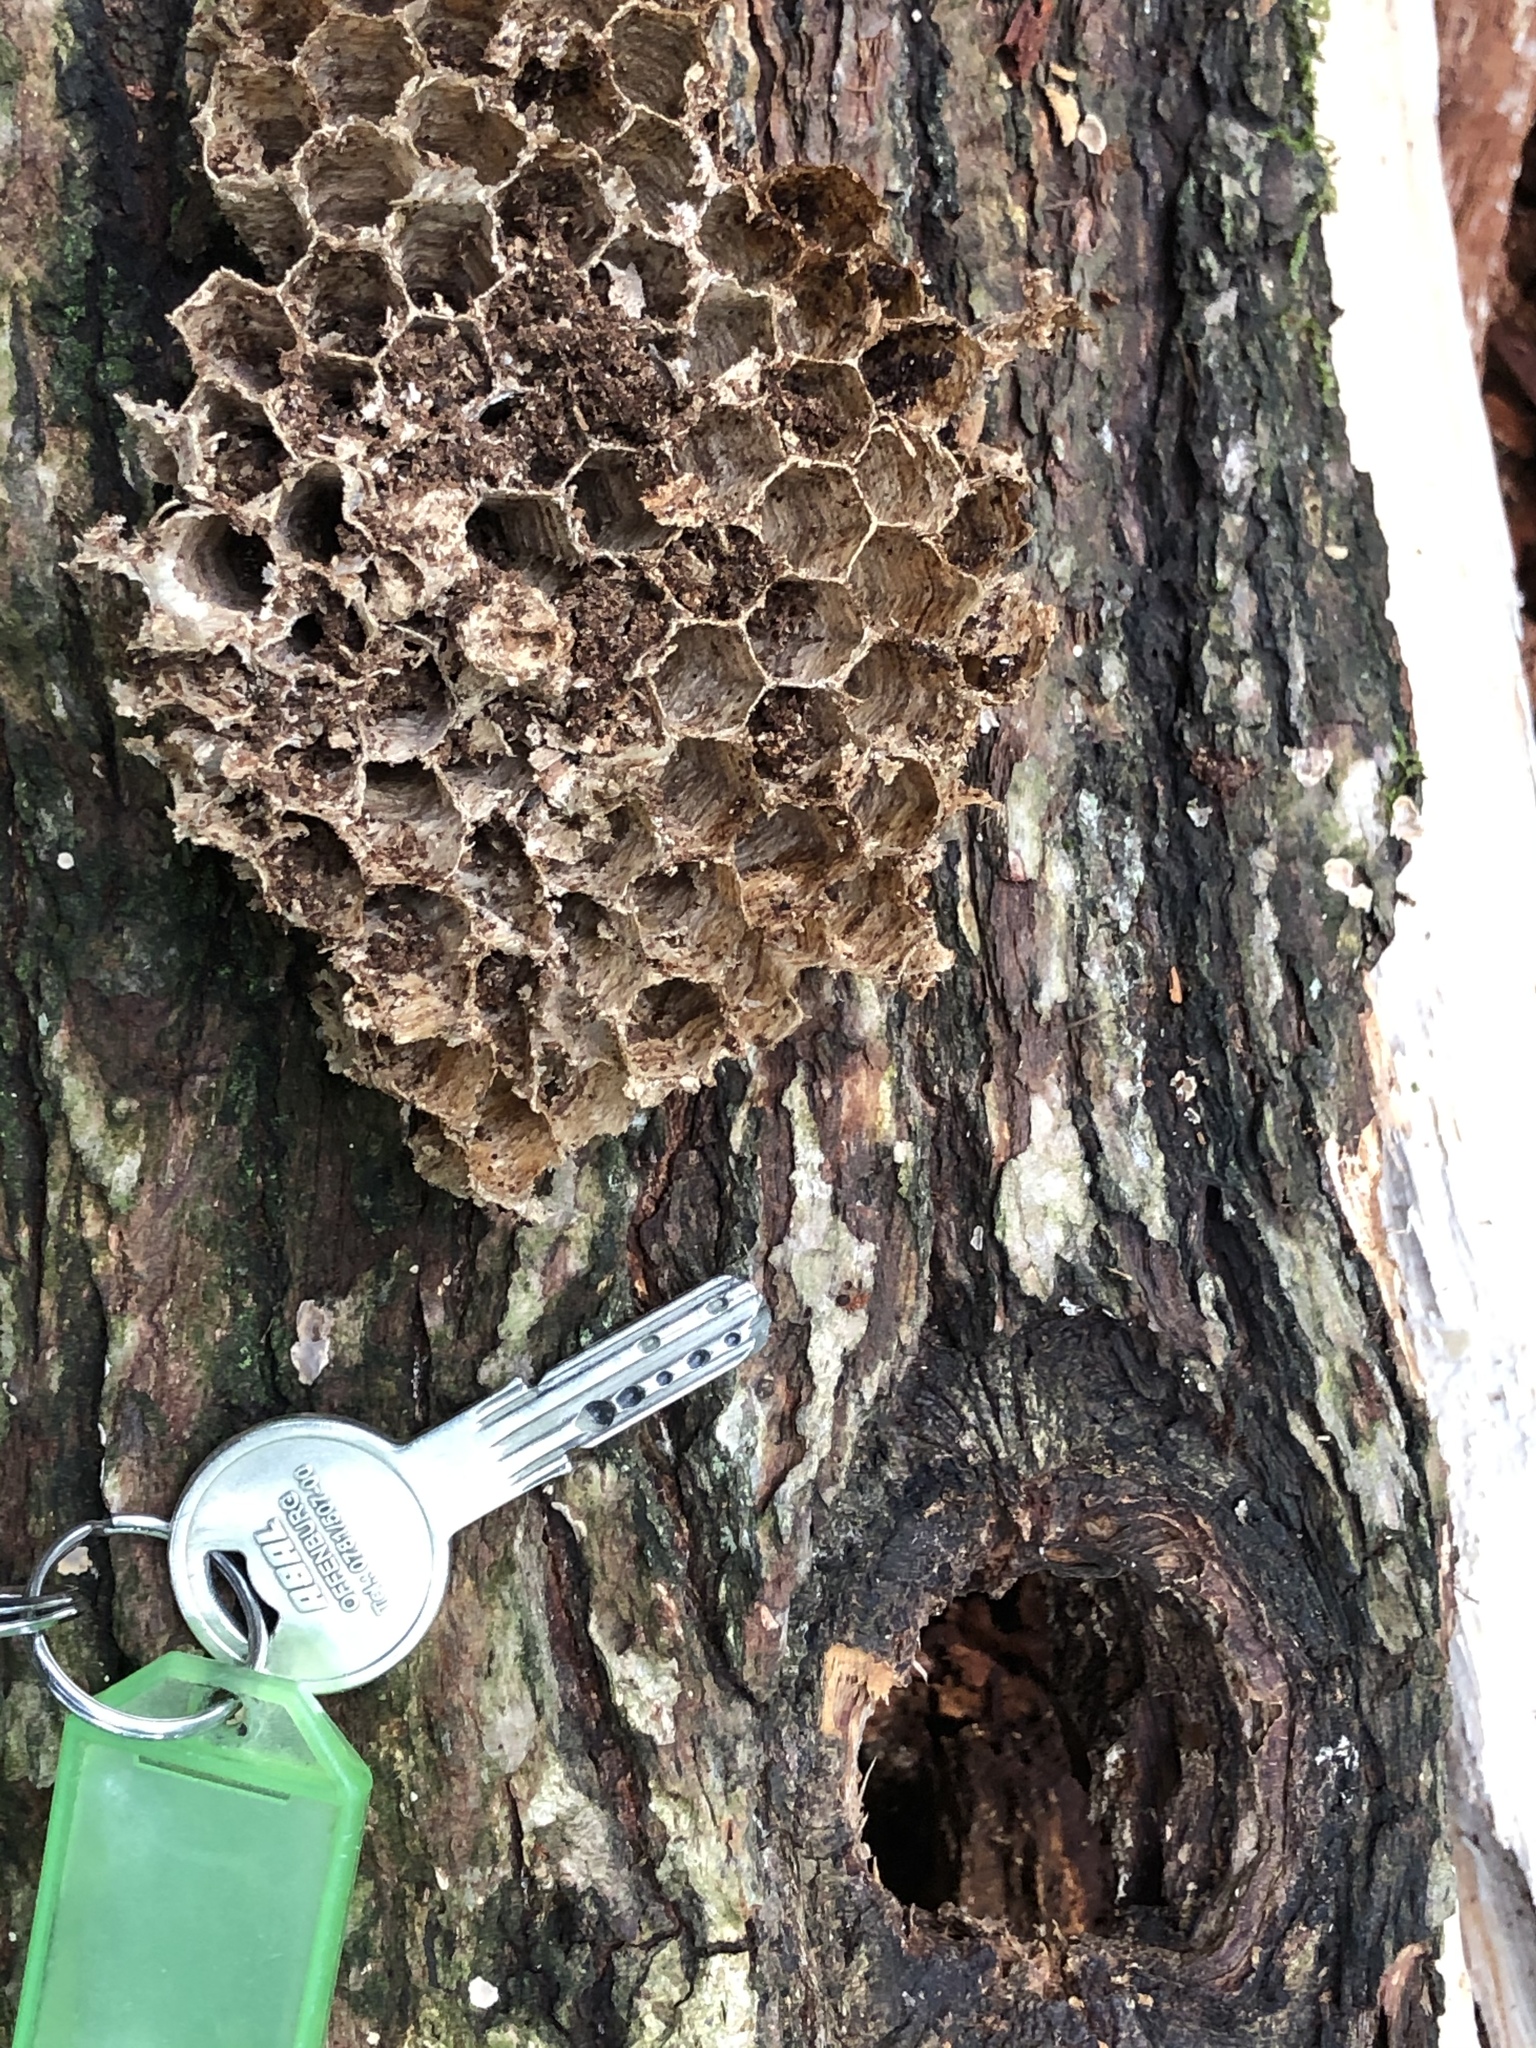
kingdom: Animalia
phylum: Arthropoda
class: Insecta
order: Hymenoptera
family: Vespidae
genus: Vespa
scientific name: Vespa crabro
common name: Hornet
